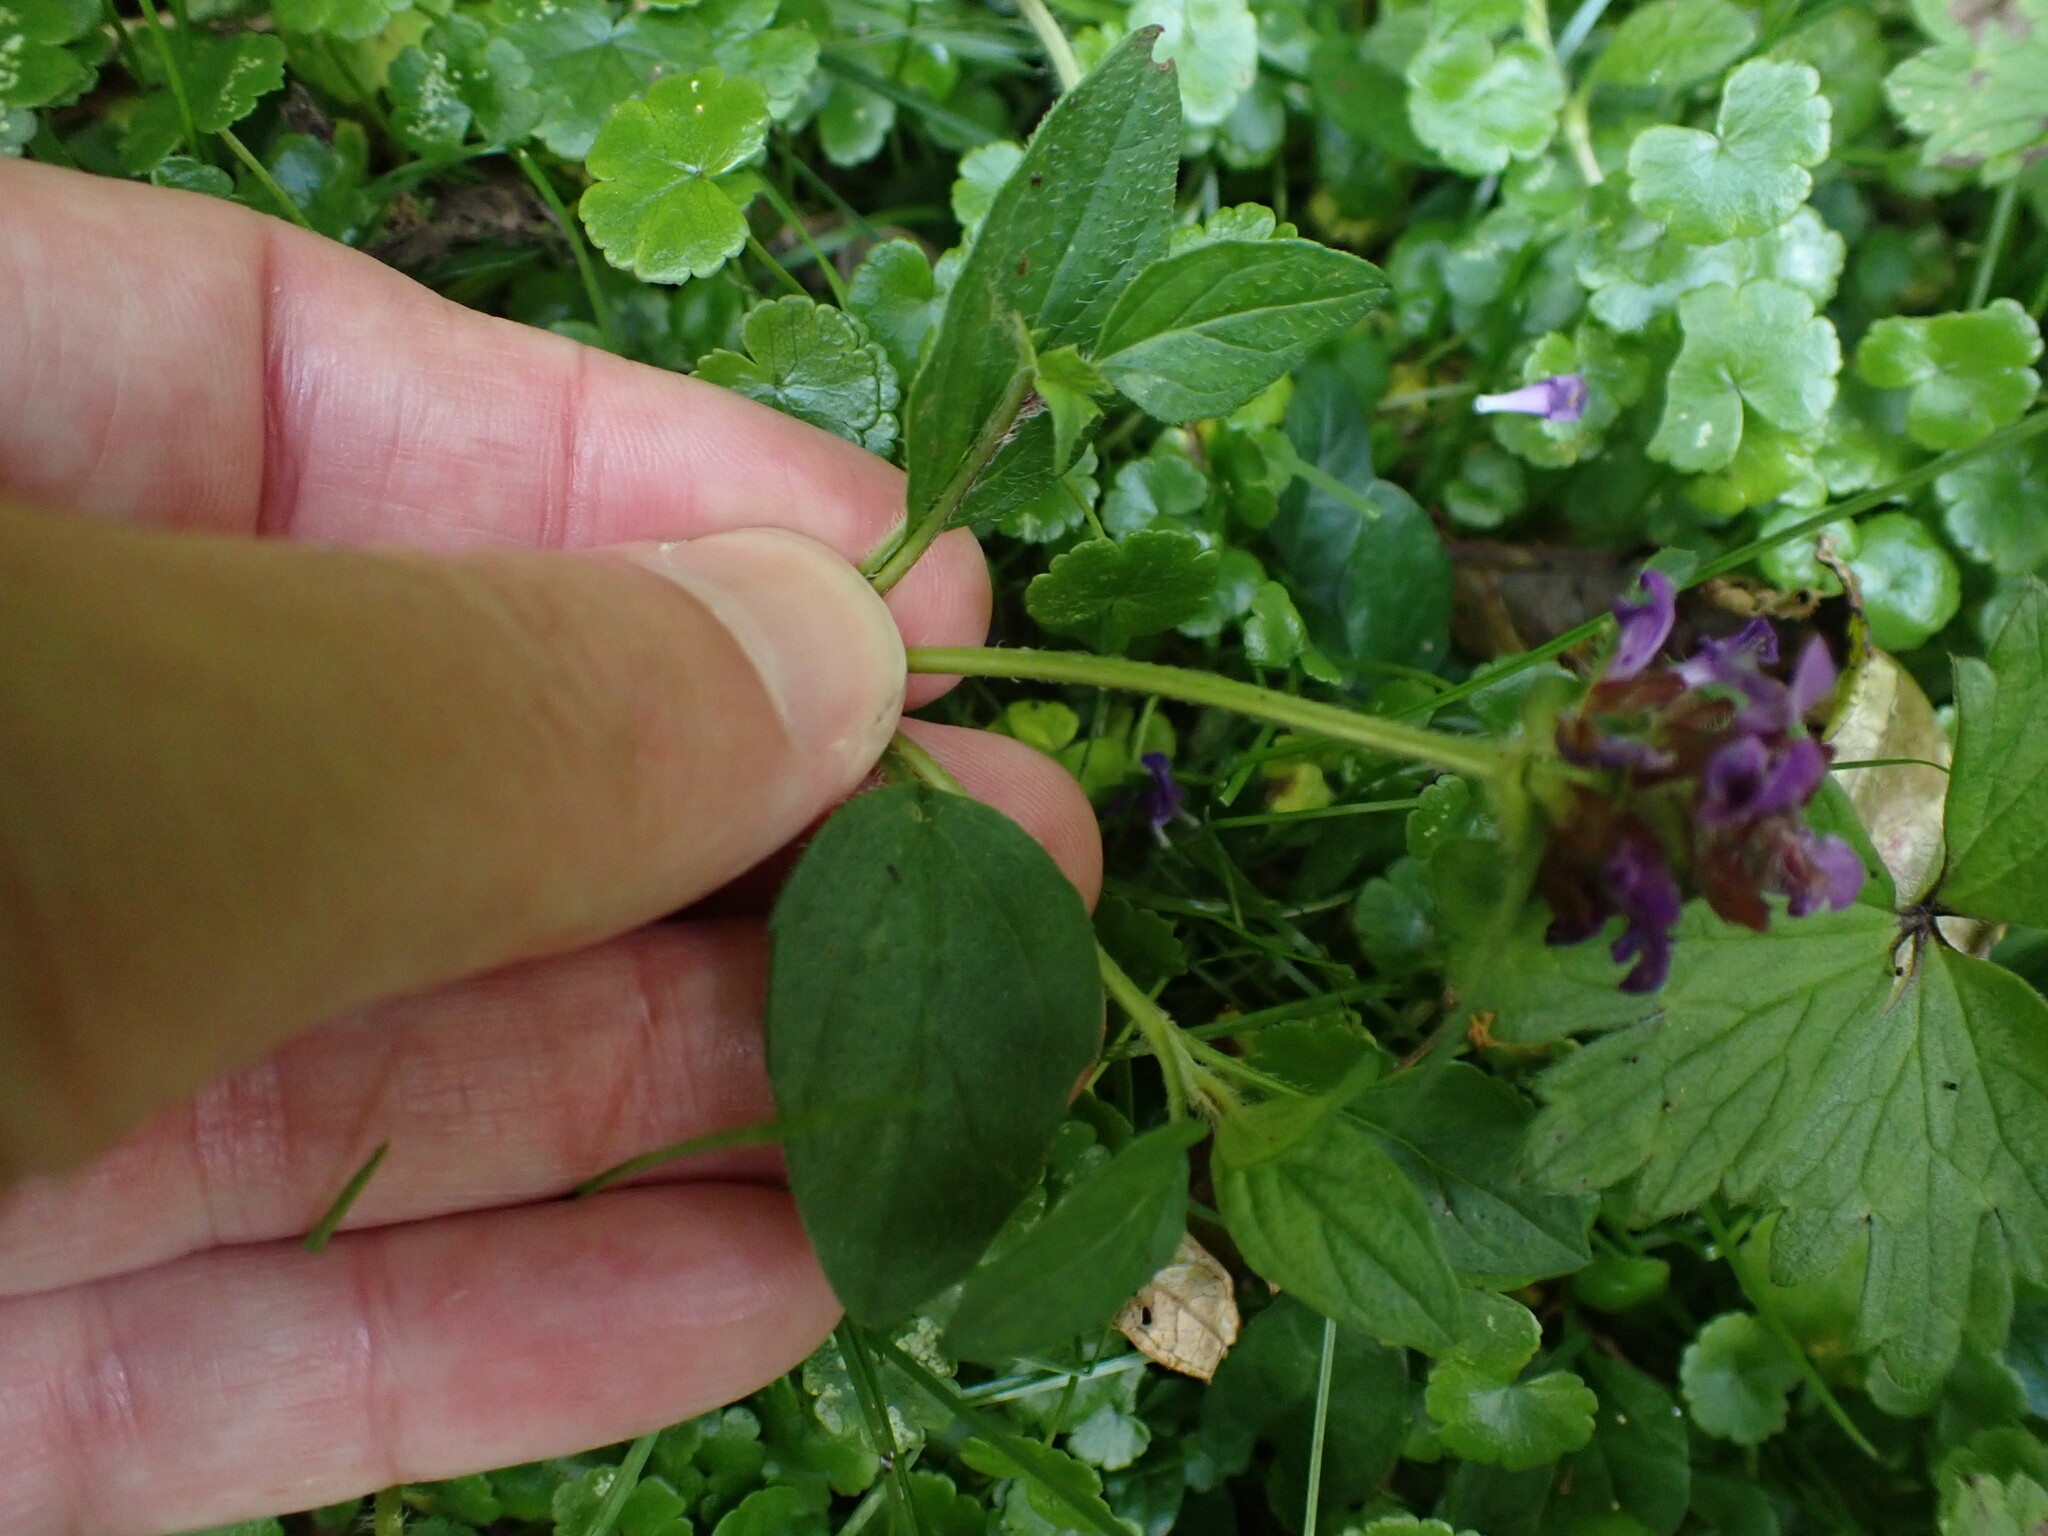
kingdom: Plantae
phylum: Tracheophyta
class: Magnoliopsida
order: Lamiales
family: Lamiaceae
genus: Prunella
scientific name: Prunella vulgaris
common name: Heal-all
